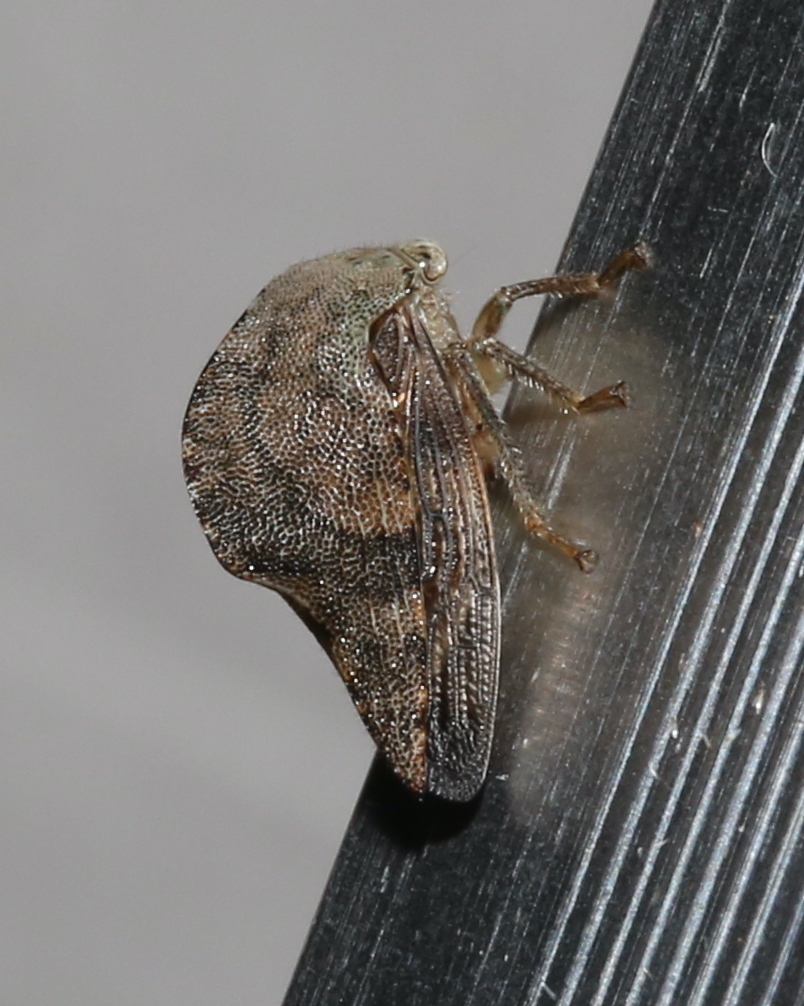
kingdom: Animalia
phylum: Arthropoda
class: Insecta
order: Hemiptera
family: Membracidae
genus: Telamona
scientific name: Telamona reclivata
